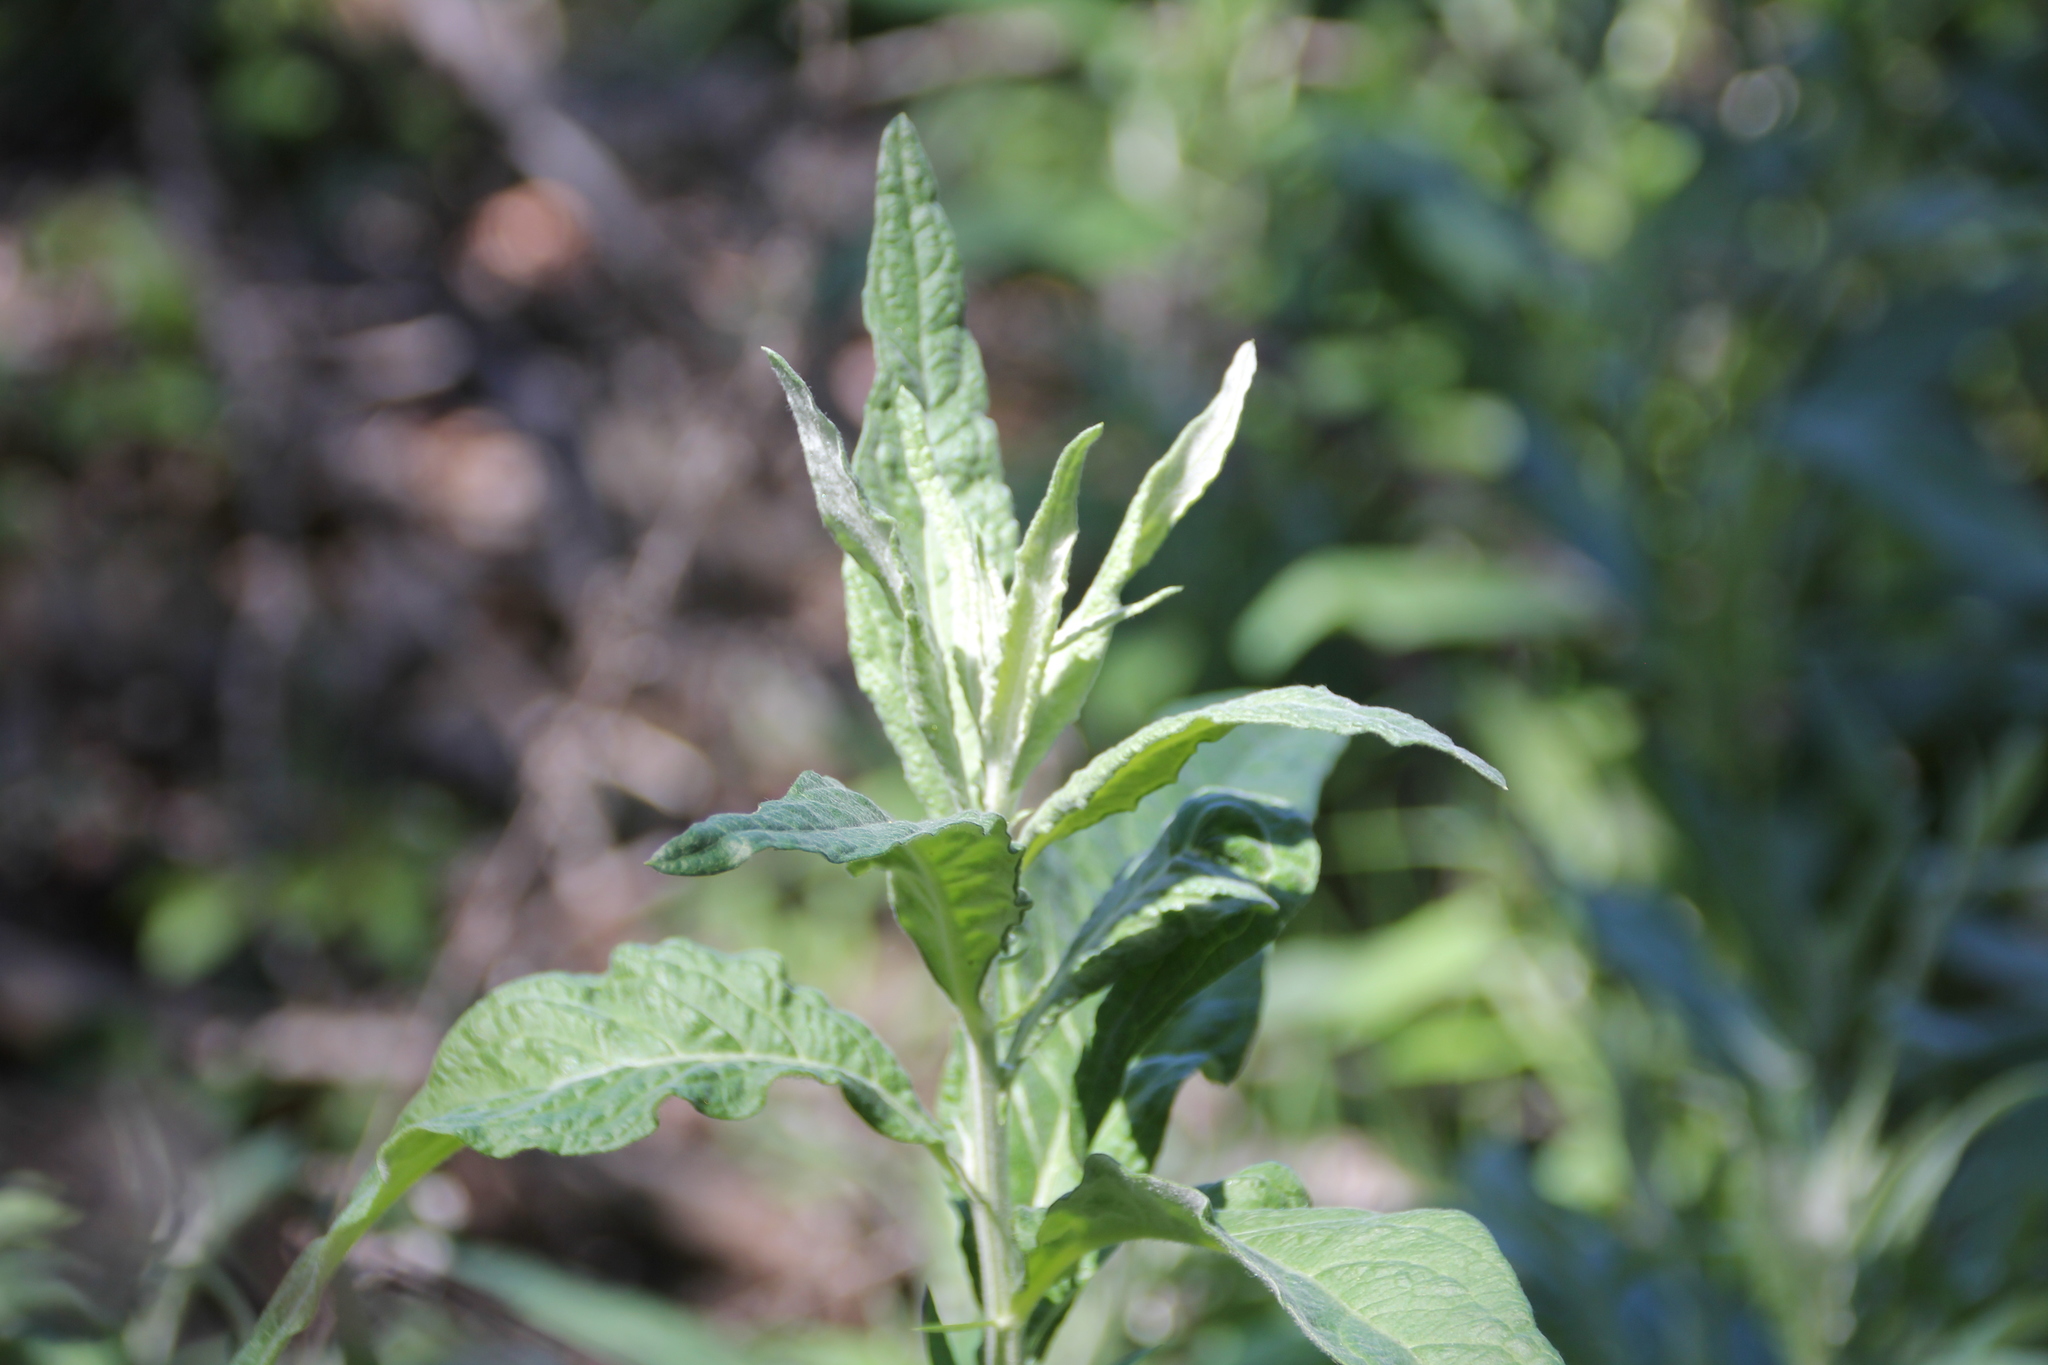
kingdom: Plantae
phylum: Tracheophyta
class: Magnoliopsida
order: Asterales
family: Asteraceae
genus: Artemisia
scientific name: Artemisia douglasiana
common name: Northwest mugwort
